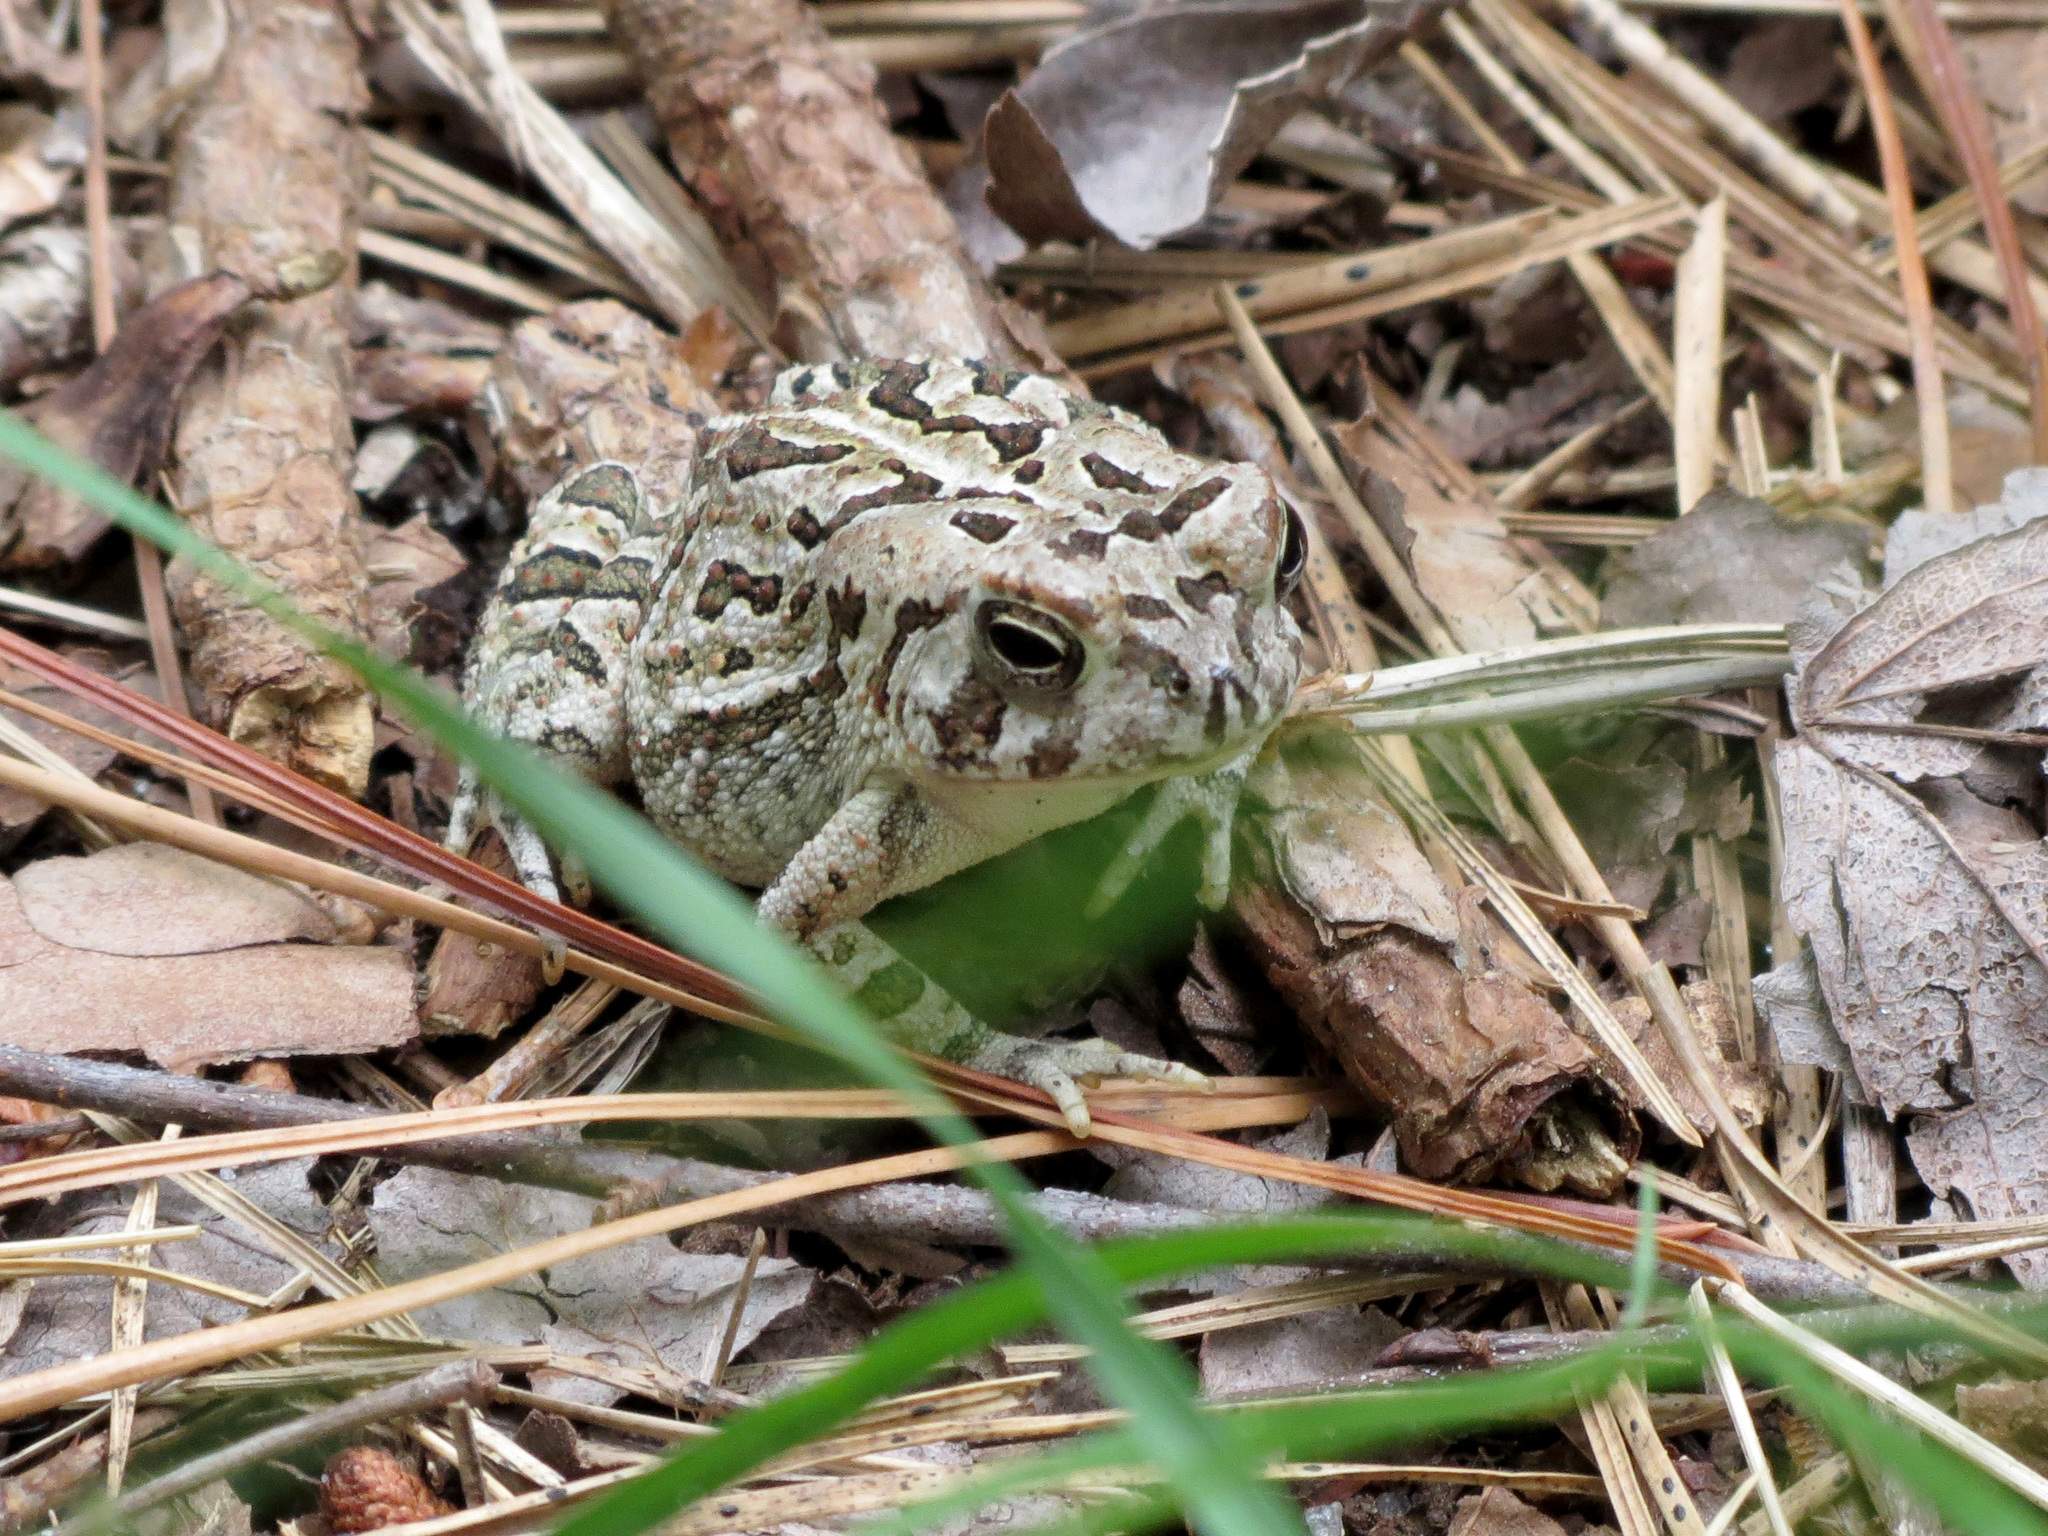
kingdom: Animalia
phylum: Chordata
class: Amphibia
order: Anura
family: Bufonidae
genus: Anaxyrus
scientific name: Anaxyrus fowleri
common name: Fowler's toad
